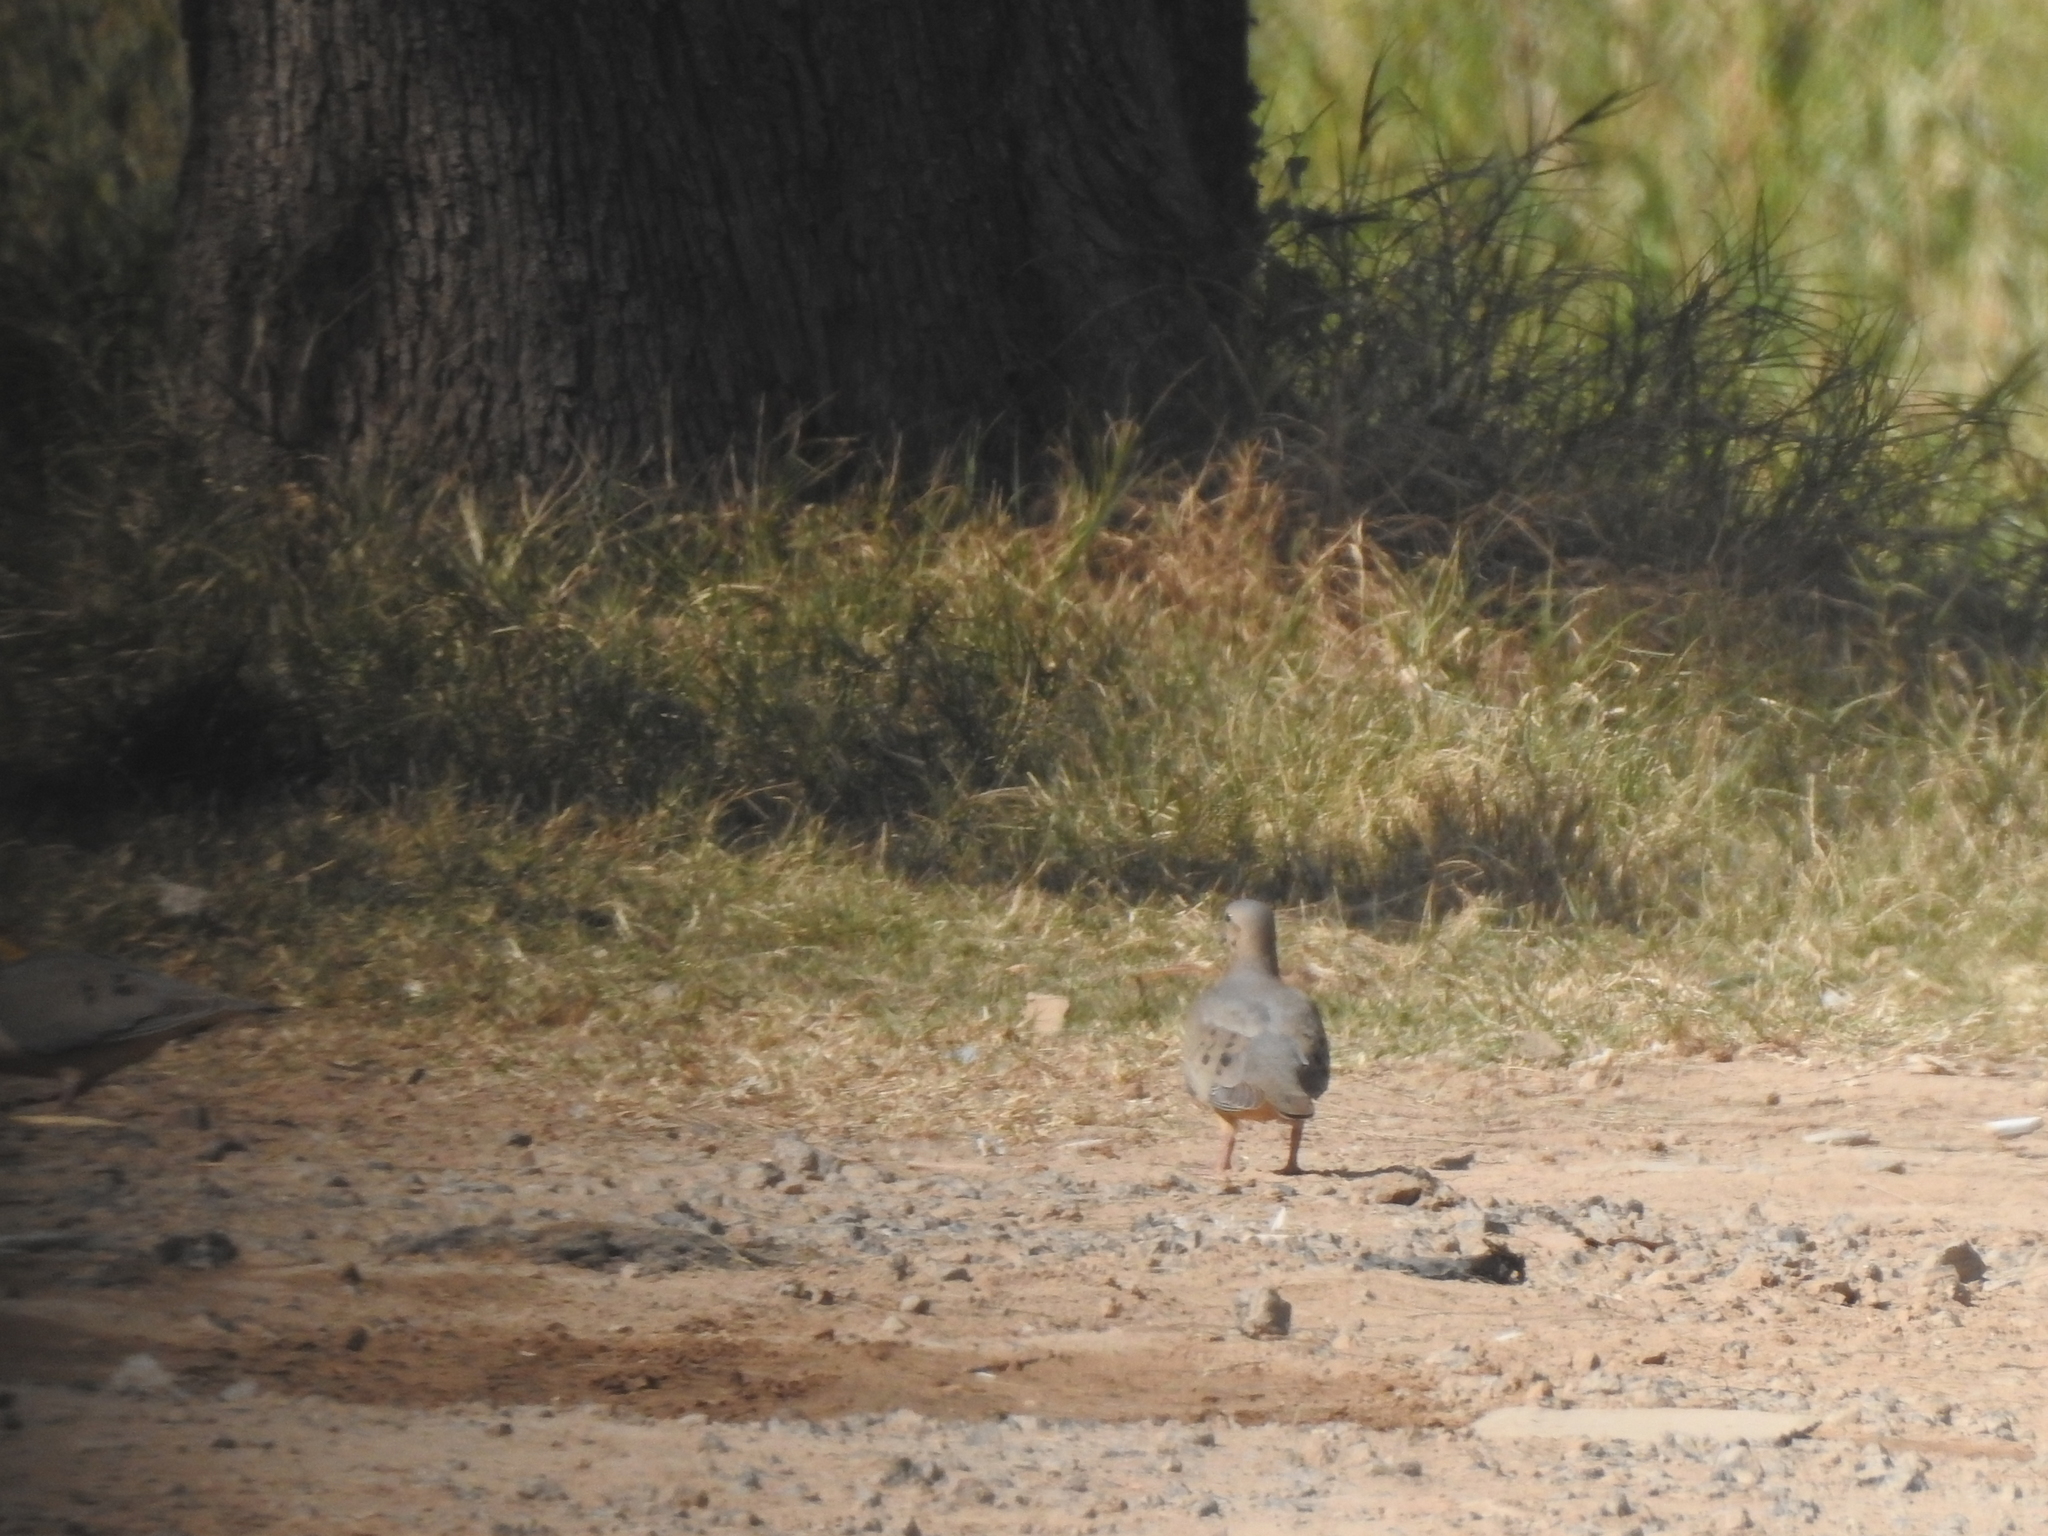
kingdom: Animalia
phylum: Chordata
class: Aves
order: Columbiformes
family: Columbidae
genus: Zenaida
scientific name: Zenaida auriculata
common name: Eared dove
